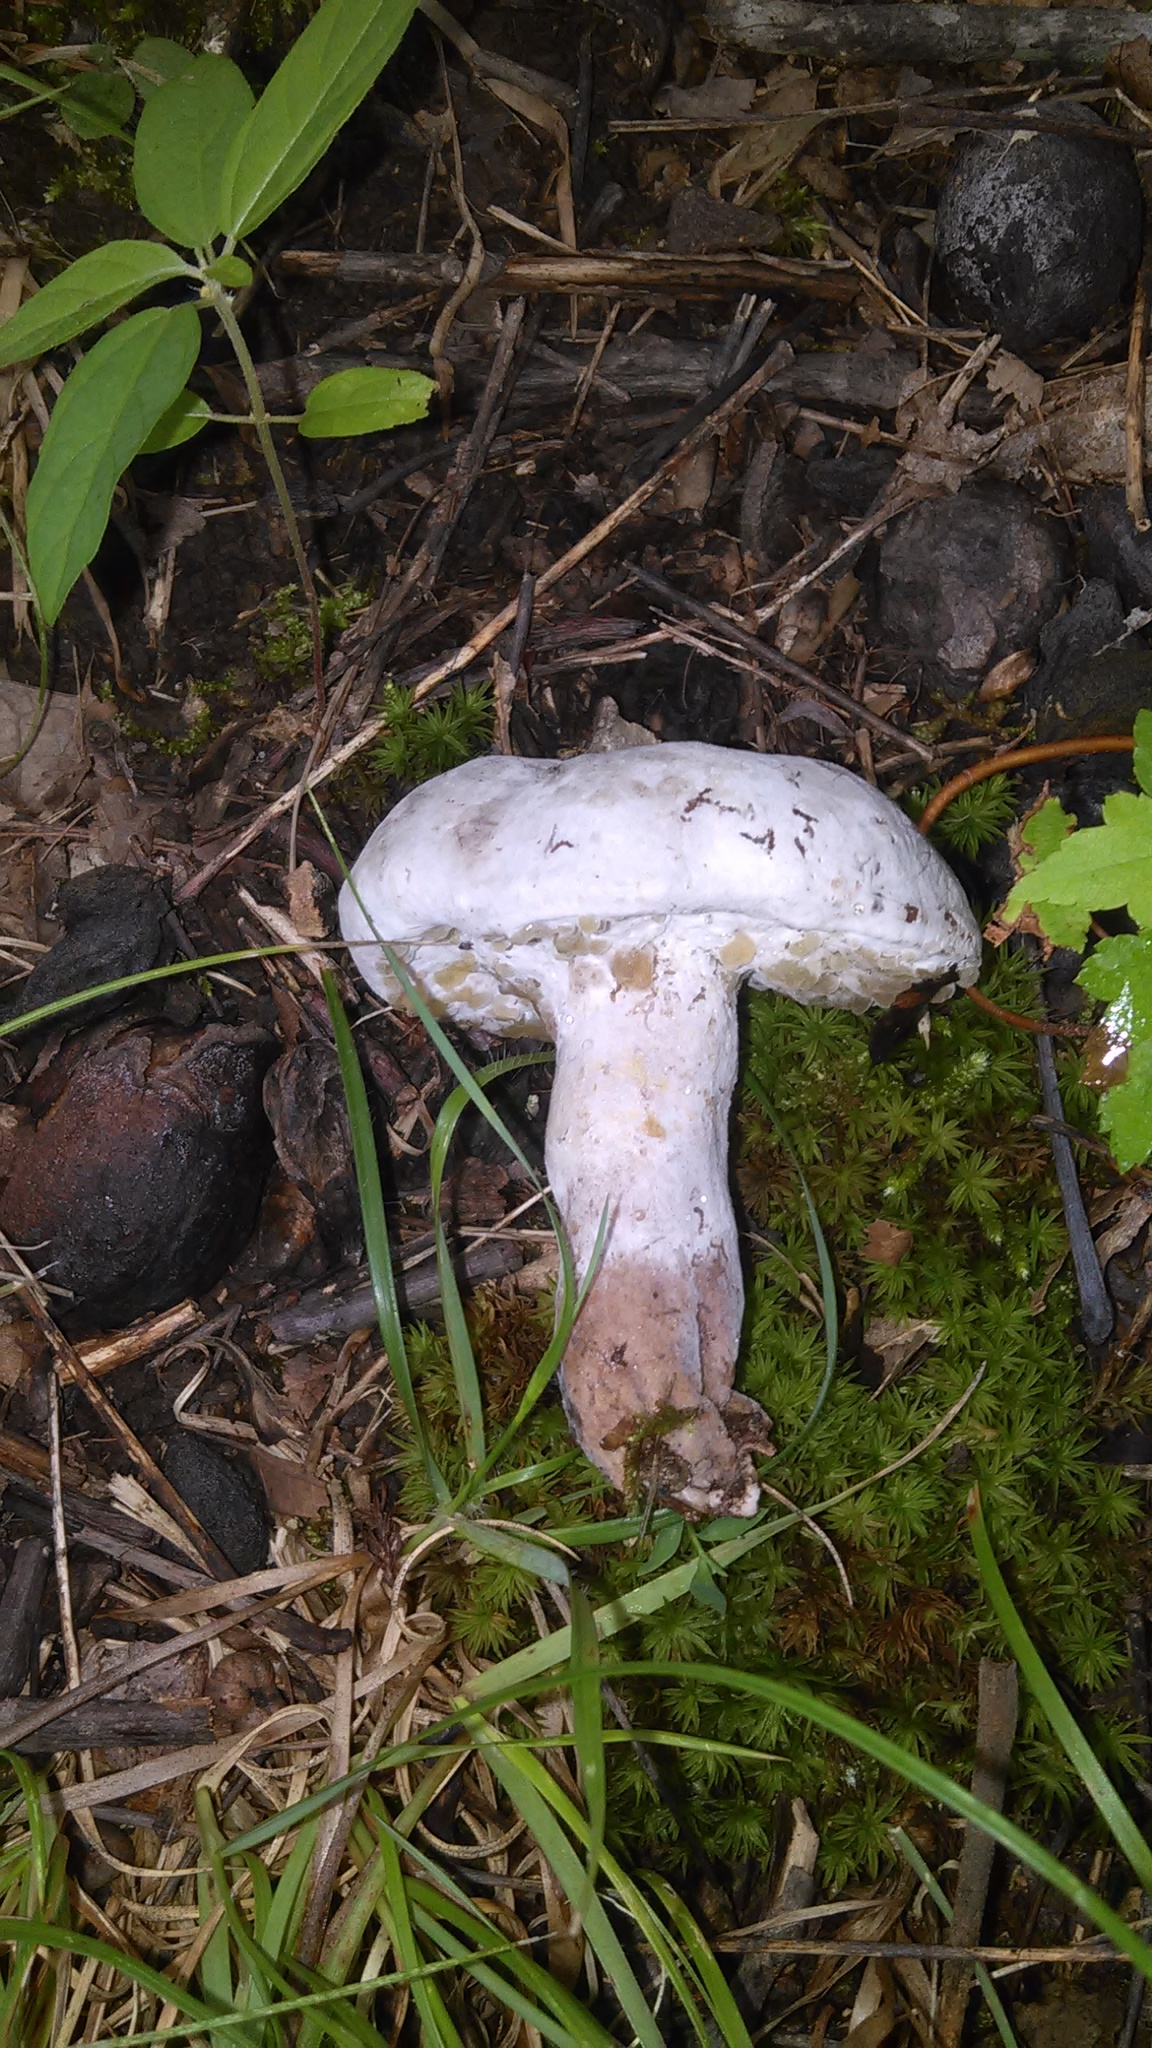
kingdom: Fungi
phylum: Ascomycota
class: Sordariomycetes
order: Hypocreales
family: Hypocreaceae
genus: Hypomyces
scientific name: Hypomyces chrysospermus
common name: Bolete mould
